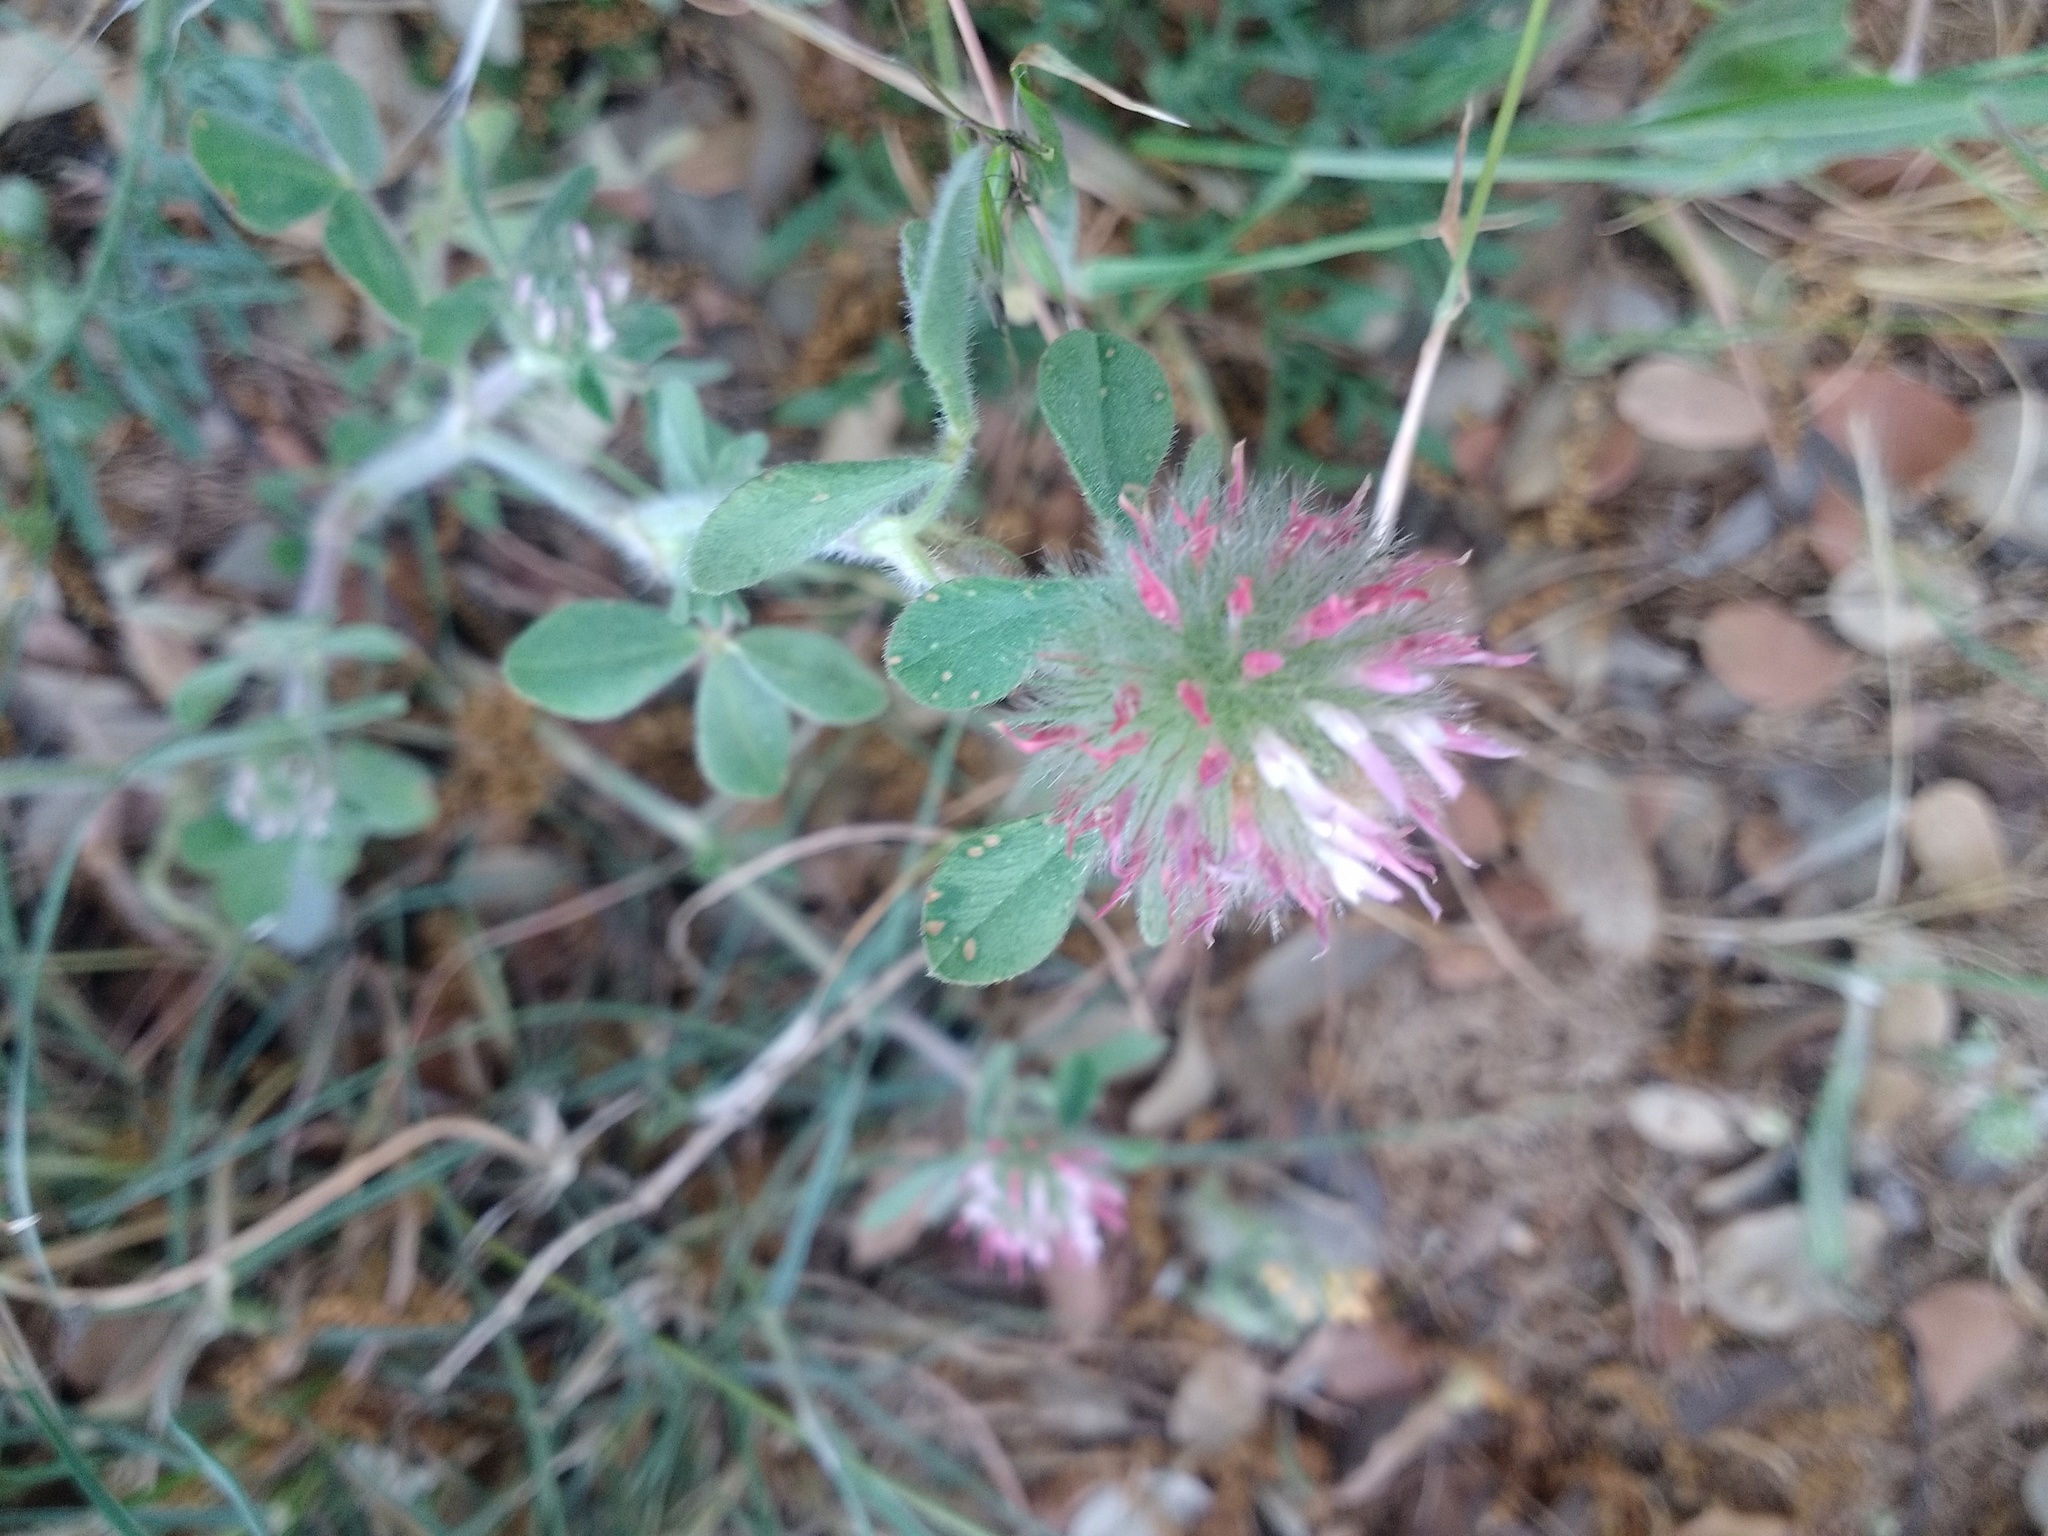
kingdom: Plantae
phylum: Tracheophyta
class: Magnoliopsida
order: Fabales
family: Fabaceae
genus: Trifolium
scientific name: Trifolium hirtum
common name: Rose clover
